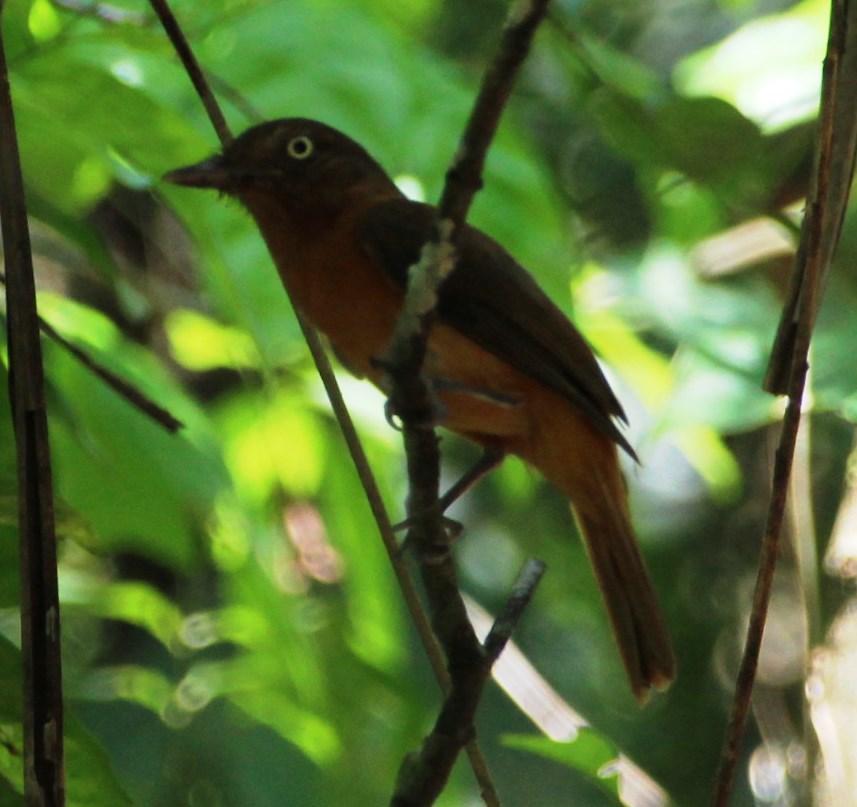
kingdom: Animalia
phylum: Chordata
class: Aves
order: Passeriformes
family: Tyrannidae
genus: Attila
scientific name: Attila bolivianus
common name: White-eyed attila
